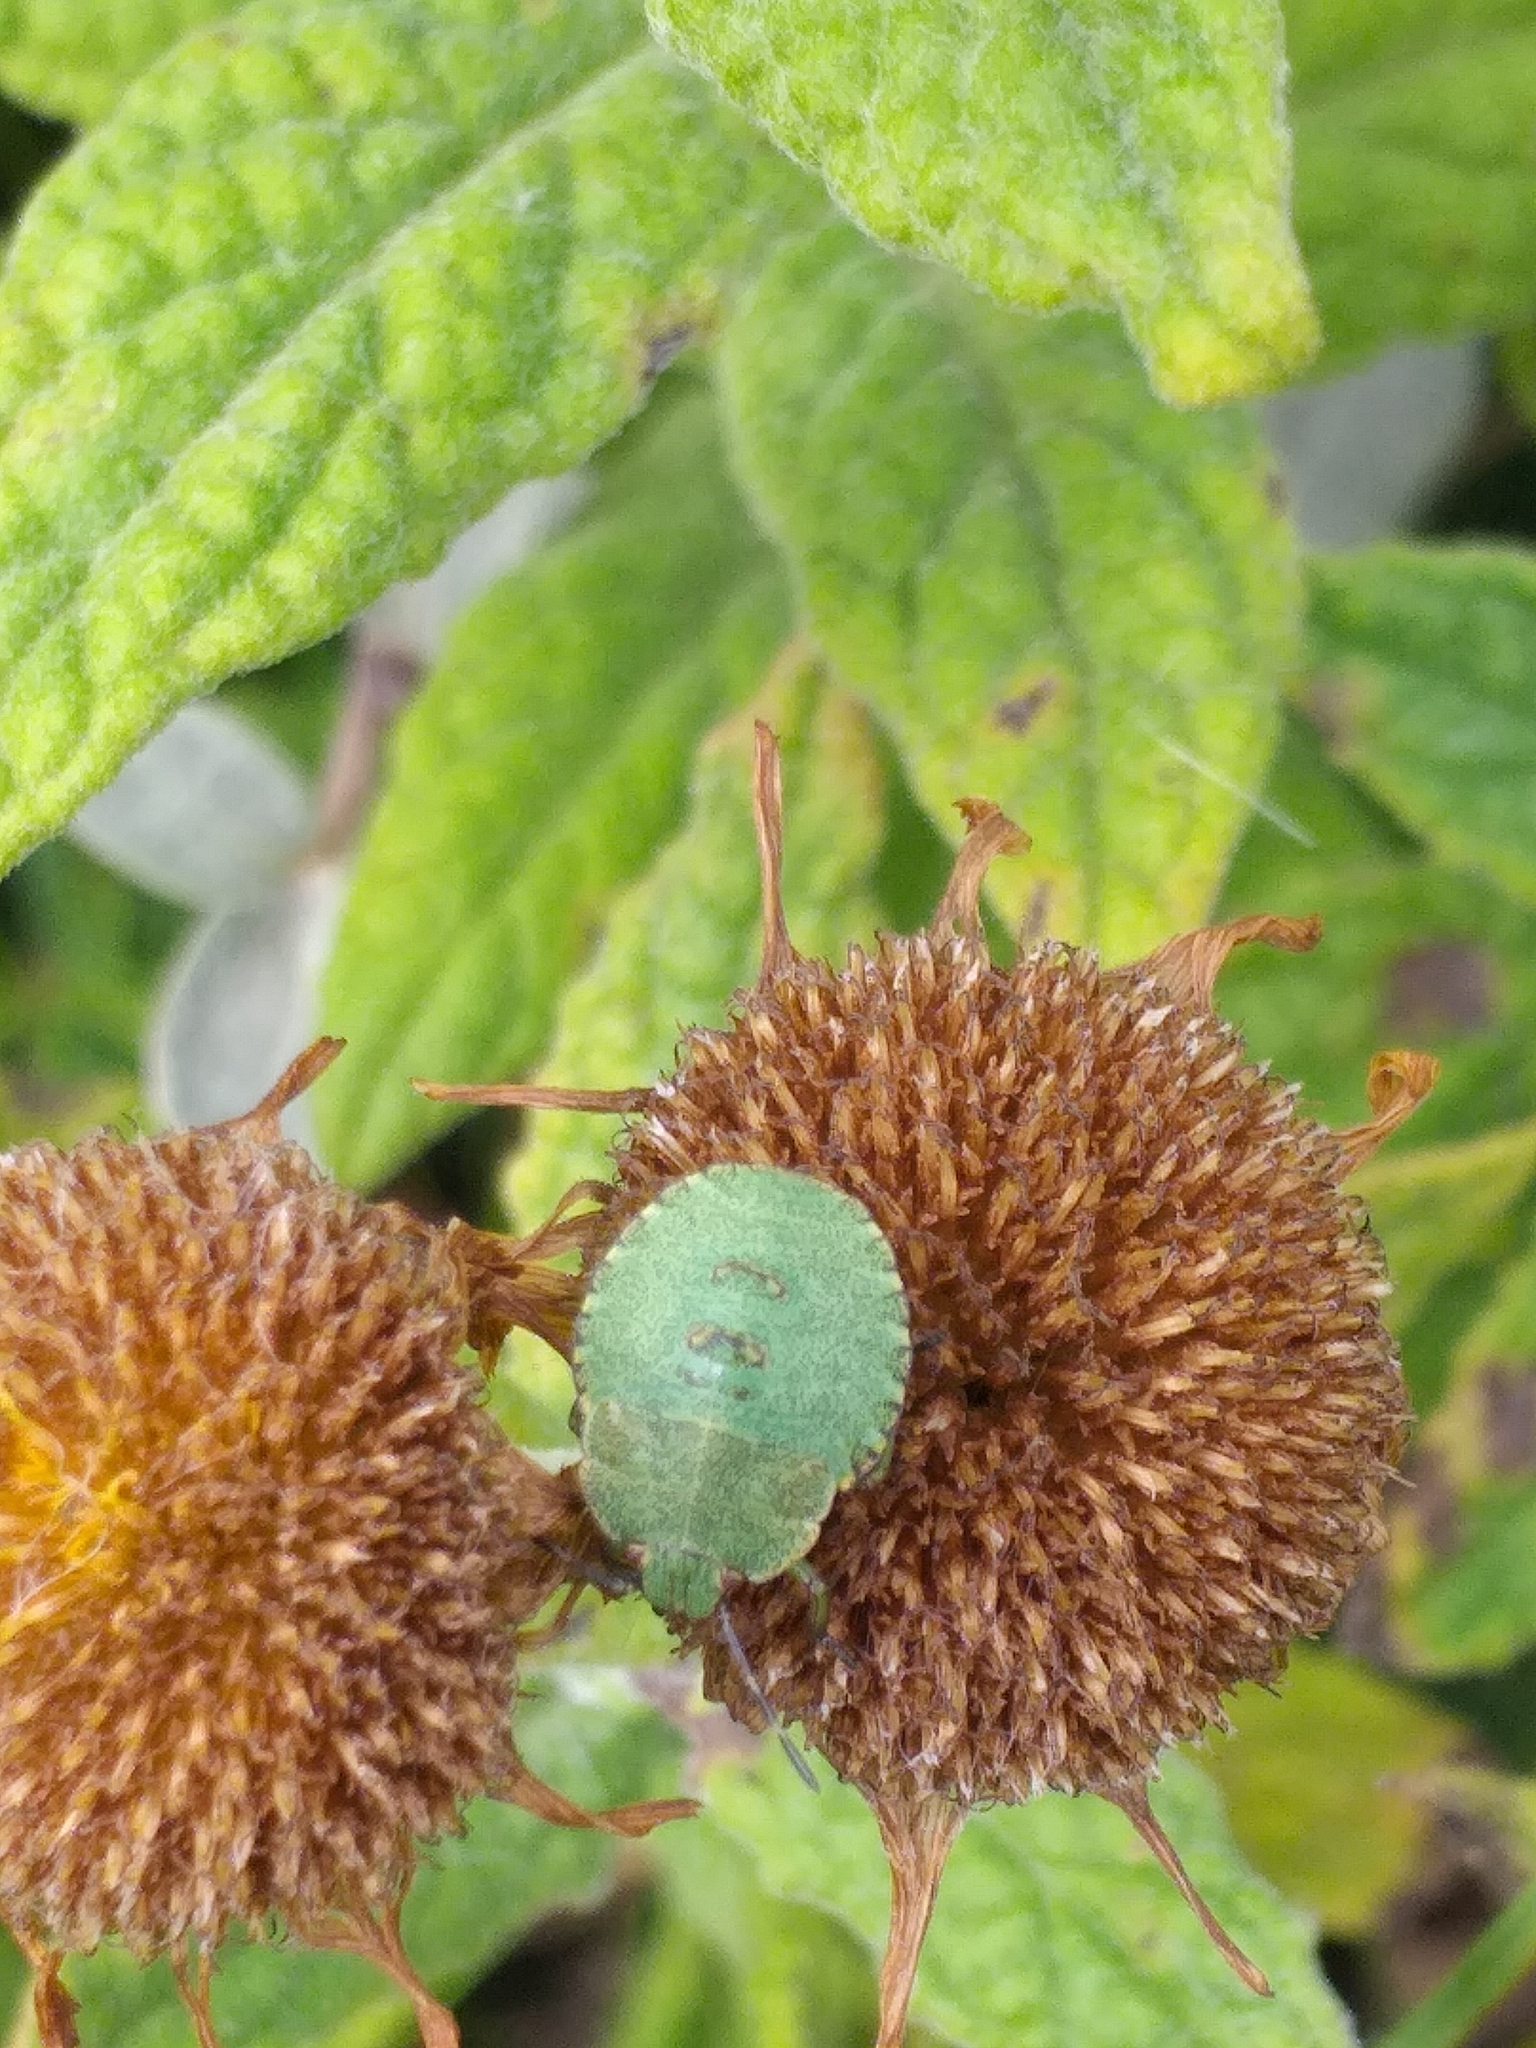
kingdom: Animalia
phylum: Arthropoda
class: Insecta
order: Hemiptera
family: Pentatomidae
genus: Palomena
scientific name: Palomena prasina
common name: Green shieldbug
